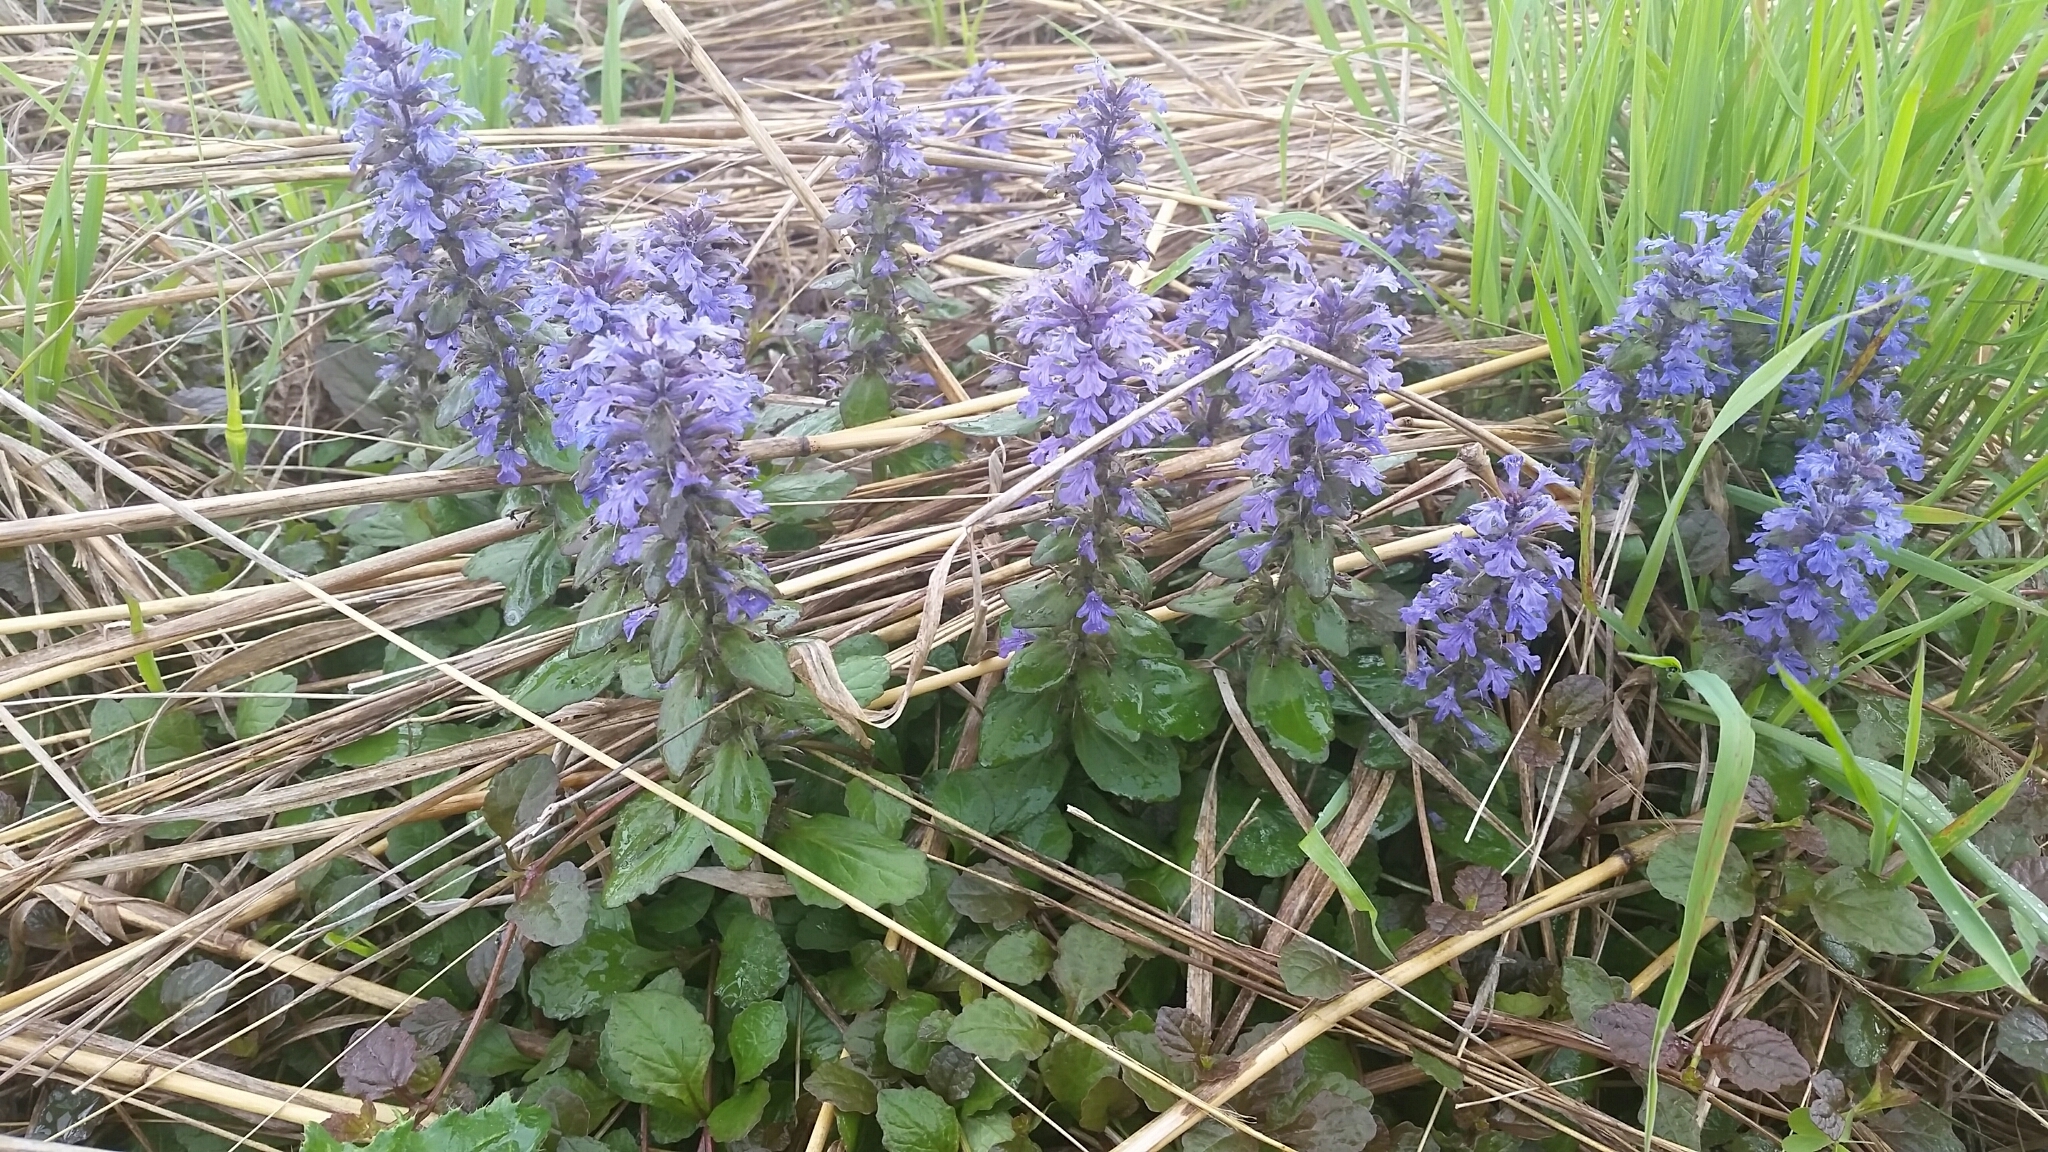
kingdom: Plantae
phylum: Tracheophyta
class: Magnoliopsida
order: Lamiales
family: Lamiaceae
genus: Ajuga
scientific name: Ajuga reptans
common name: Bugle
